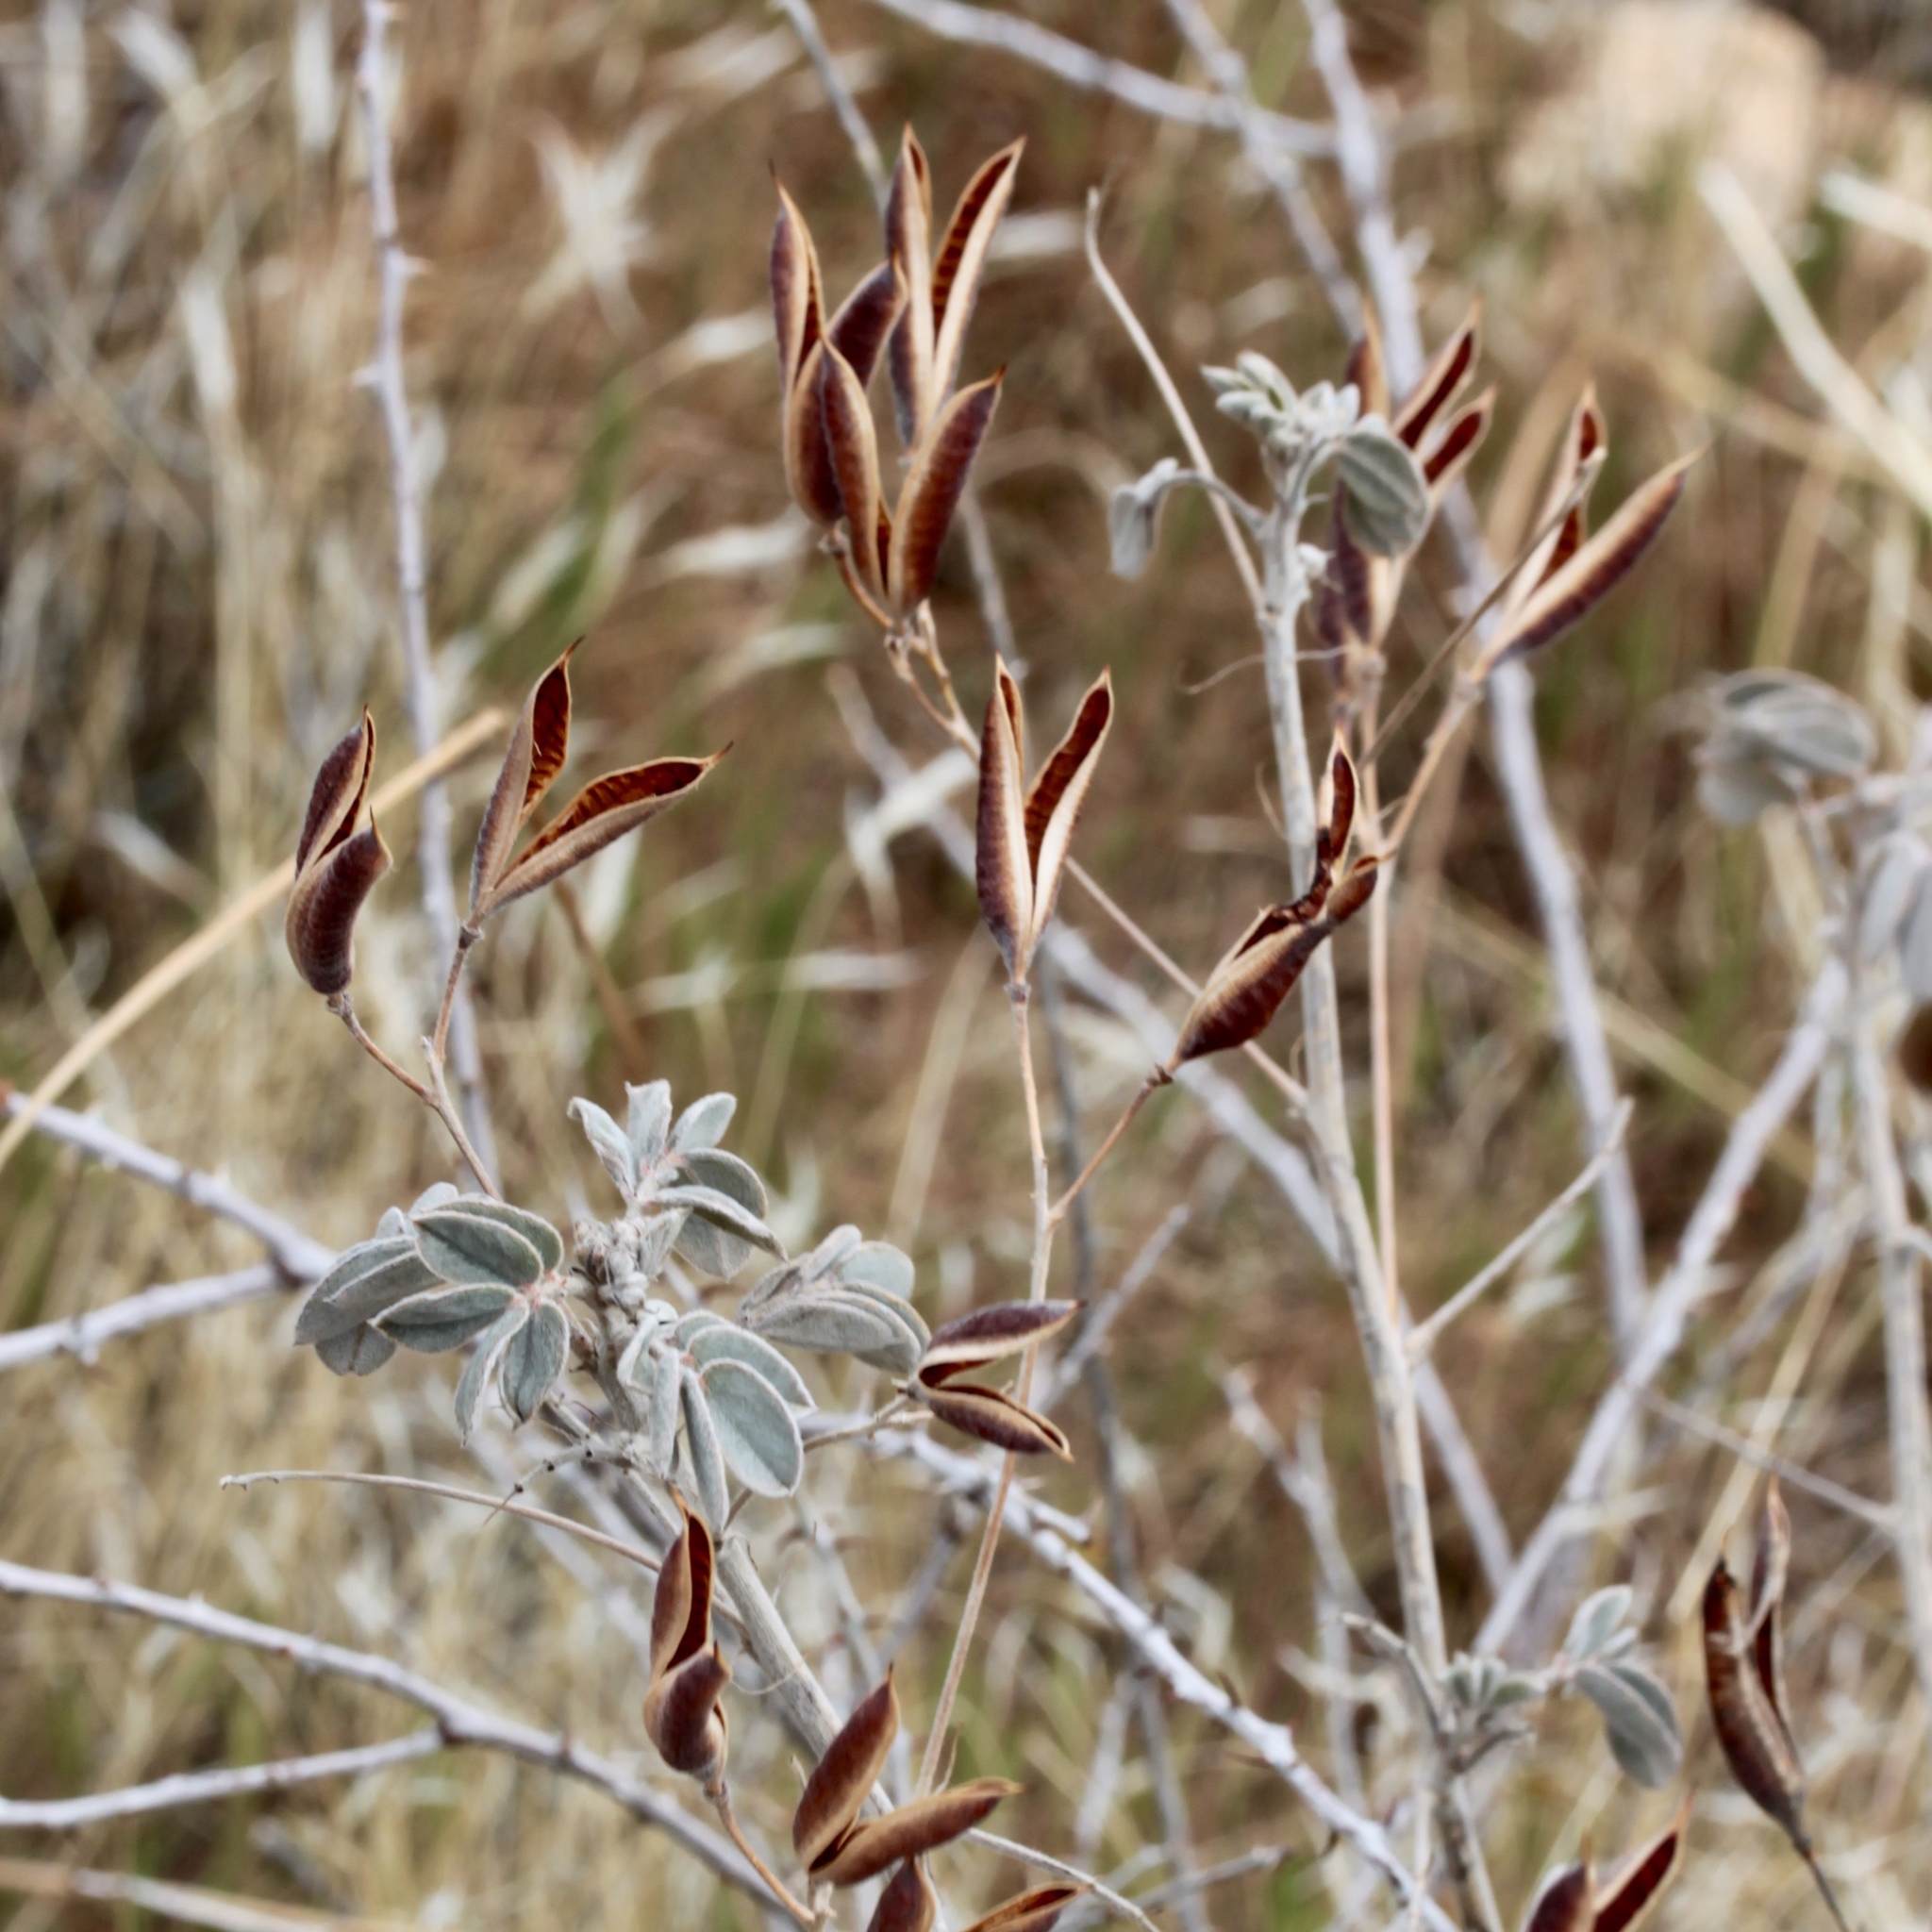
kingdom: Plantae
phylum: Tracheophyta
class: Magnoliopsida
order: Fabales
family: Fabaceae
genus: Senna
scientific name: Senna covesii
